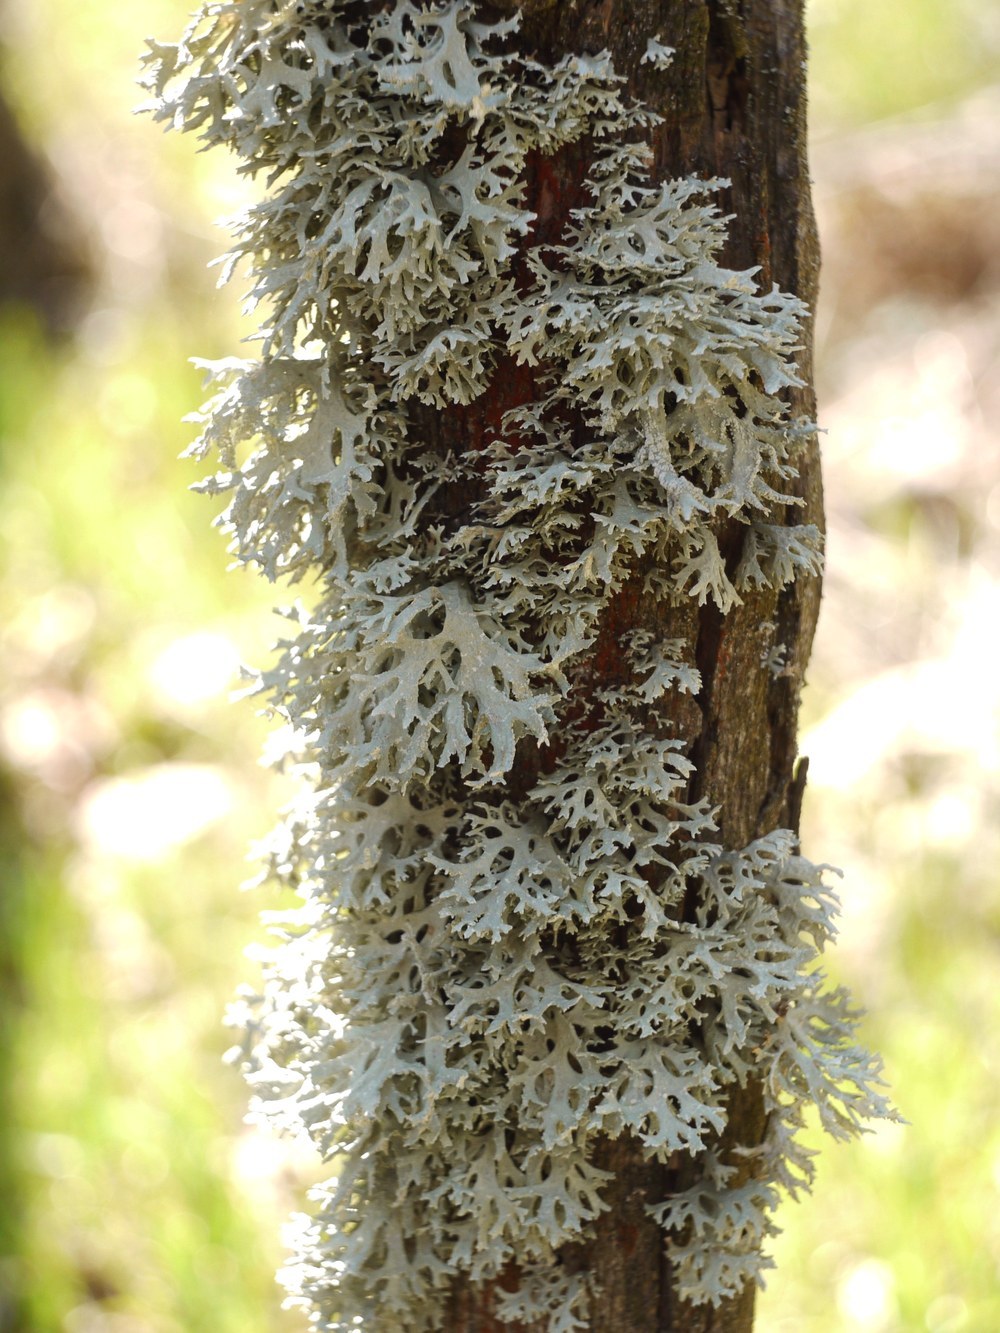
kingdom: Fungi
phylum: Ascomycota
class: Lecanoromycetes
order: Lecanorales
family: Parmeliaceae
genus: Evernia
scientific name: Evernia prunastri
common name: Oak moss
